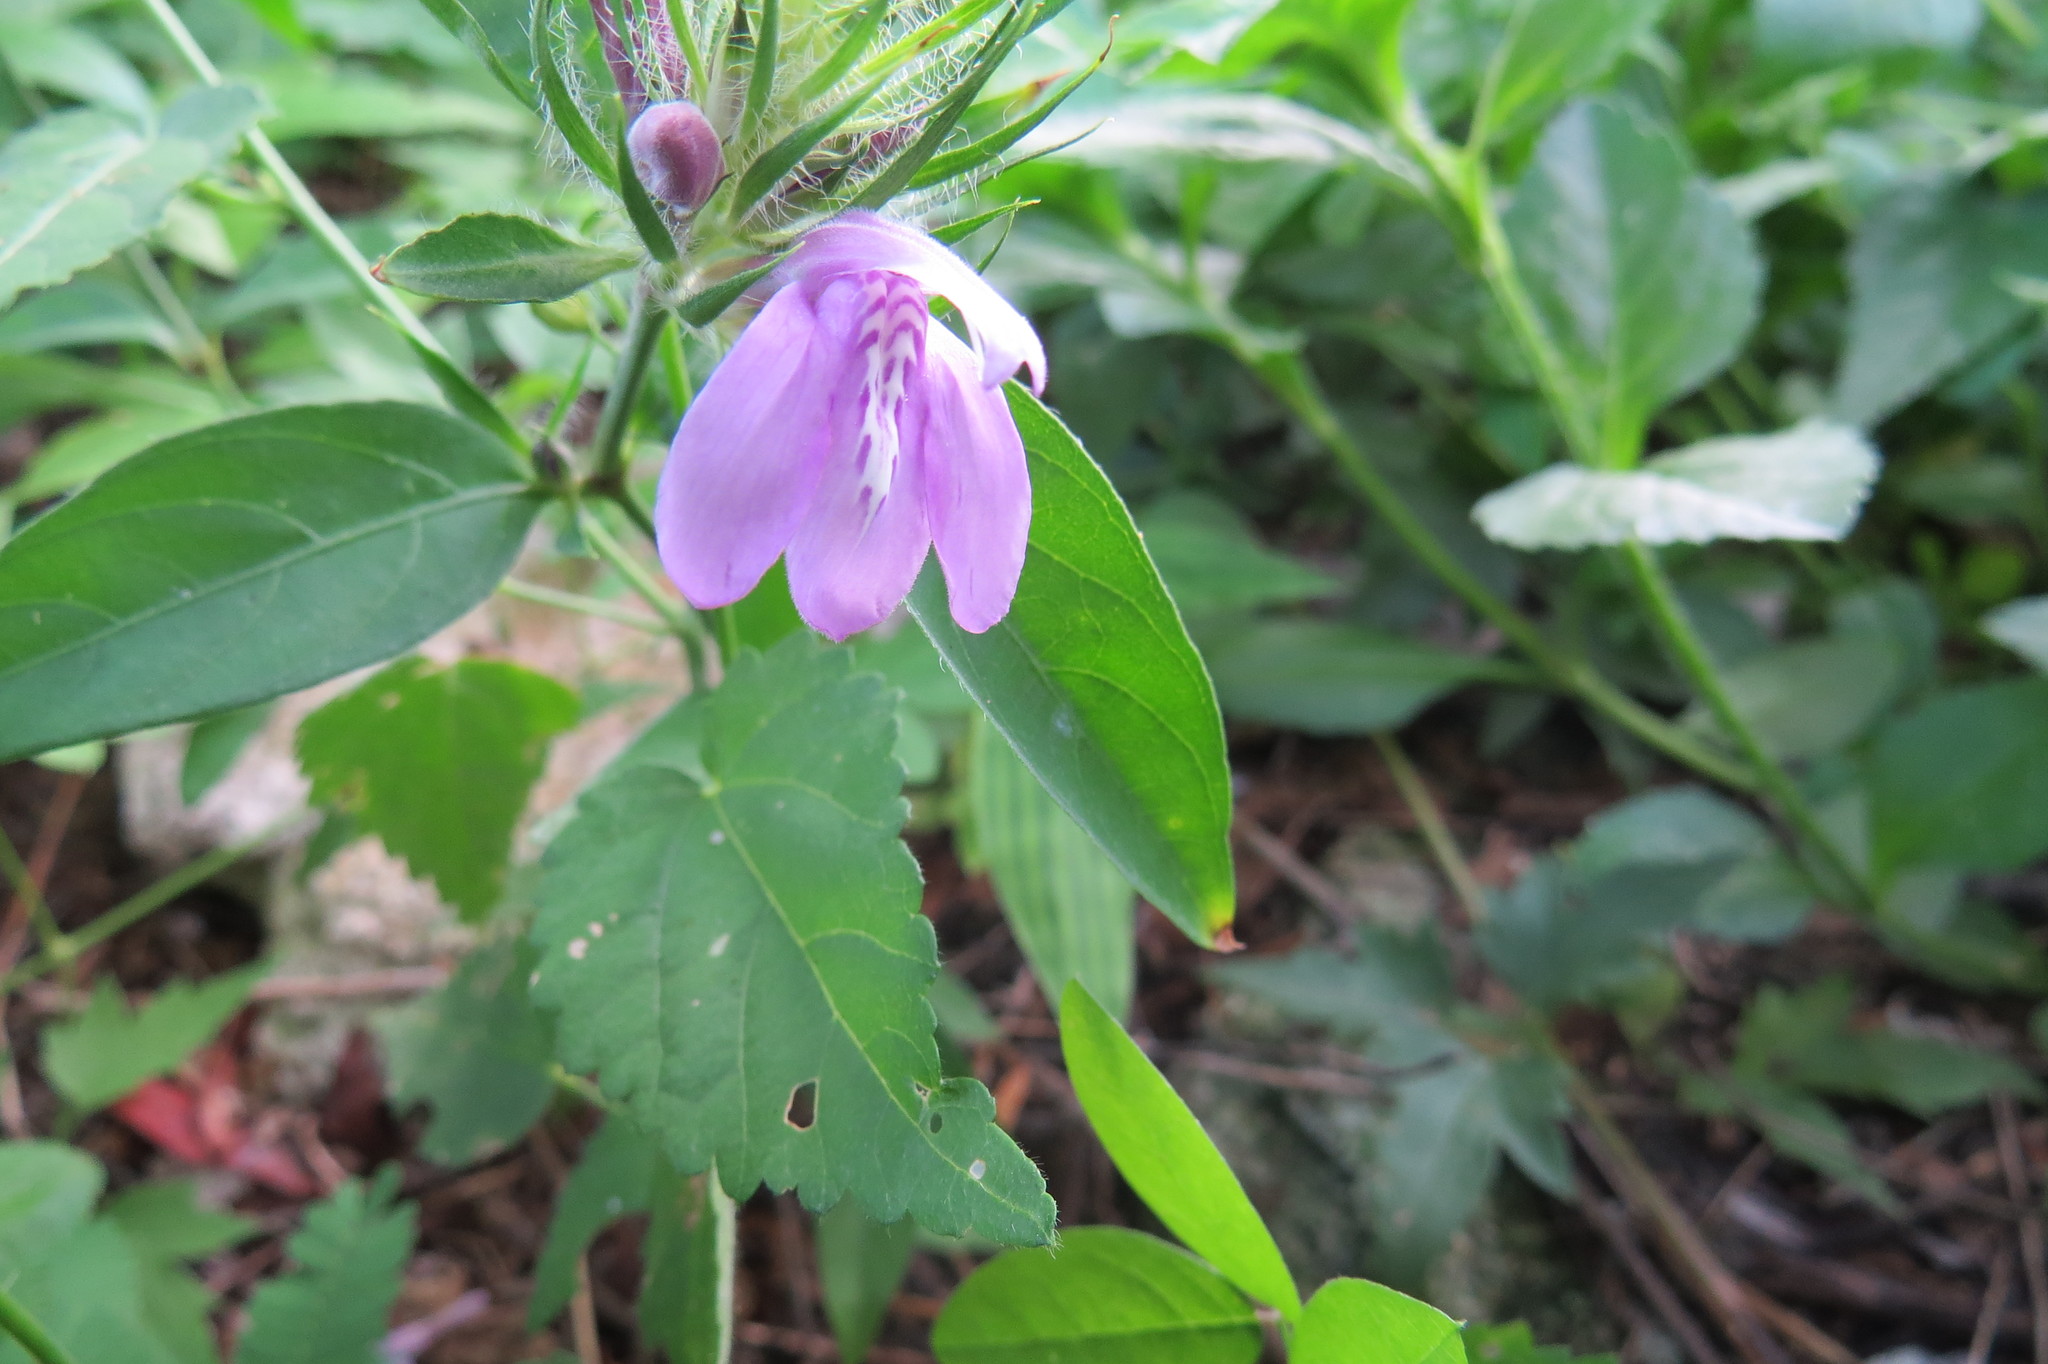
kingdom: Plantae
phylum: Tracheophyta
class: Magnoliopsida
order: Lamiales
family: Acanthaceae
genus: Justicia
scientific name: Justicia squarrosa
